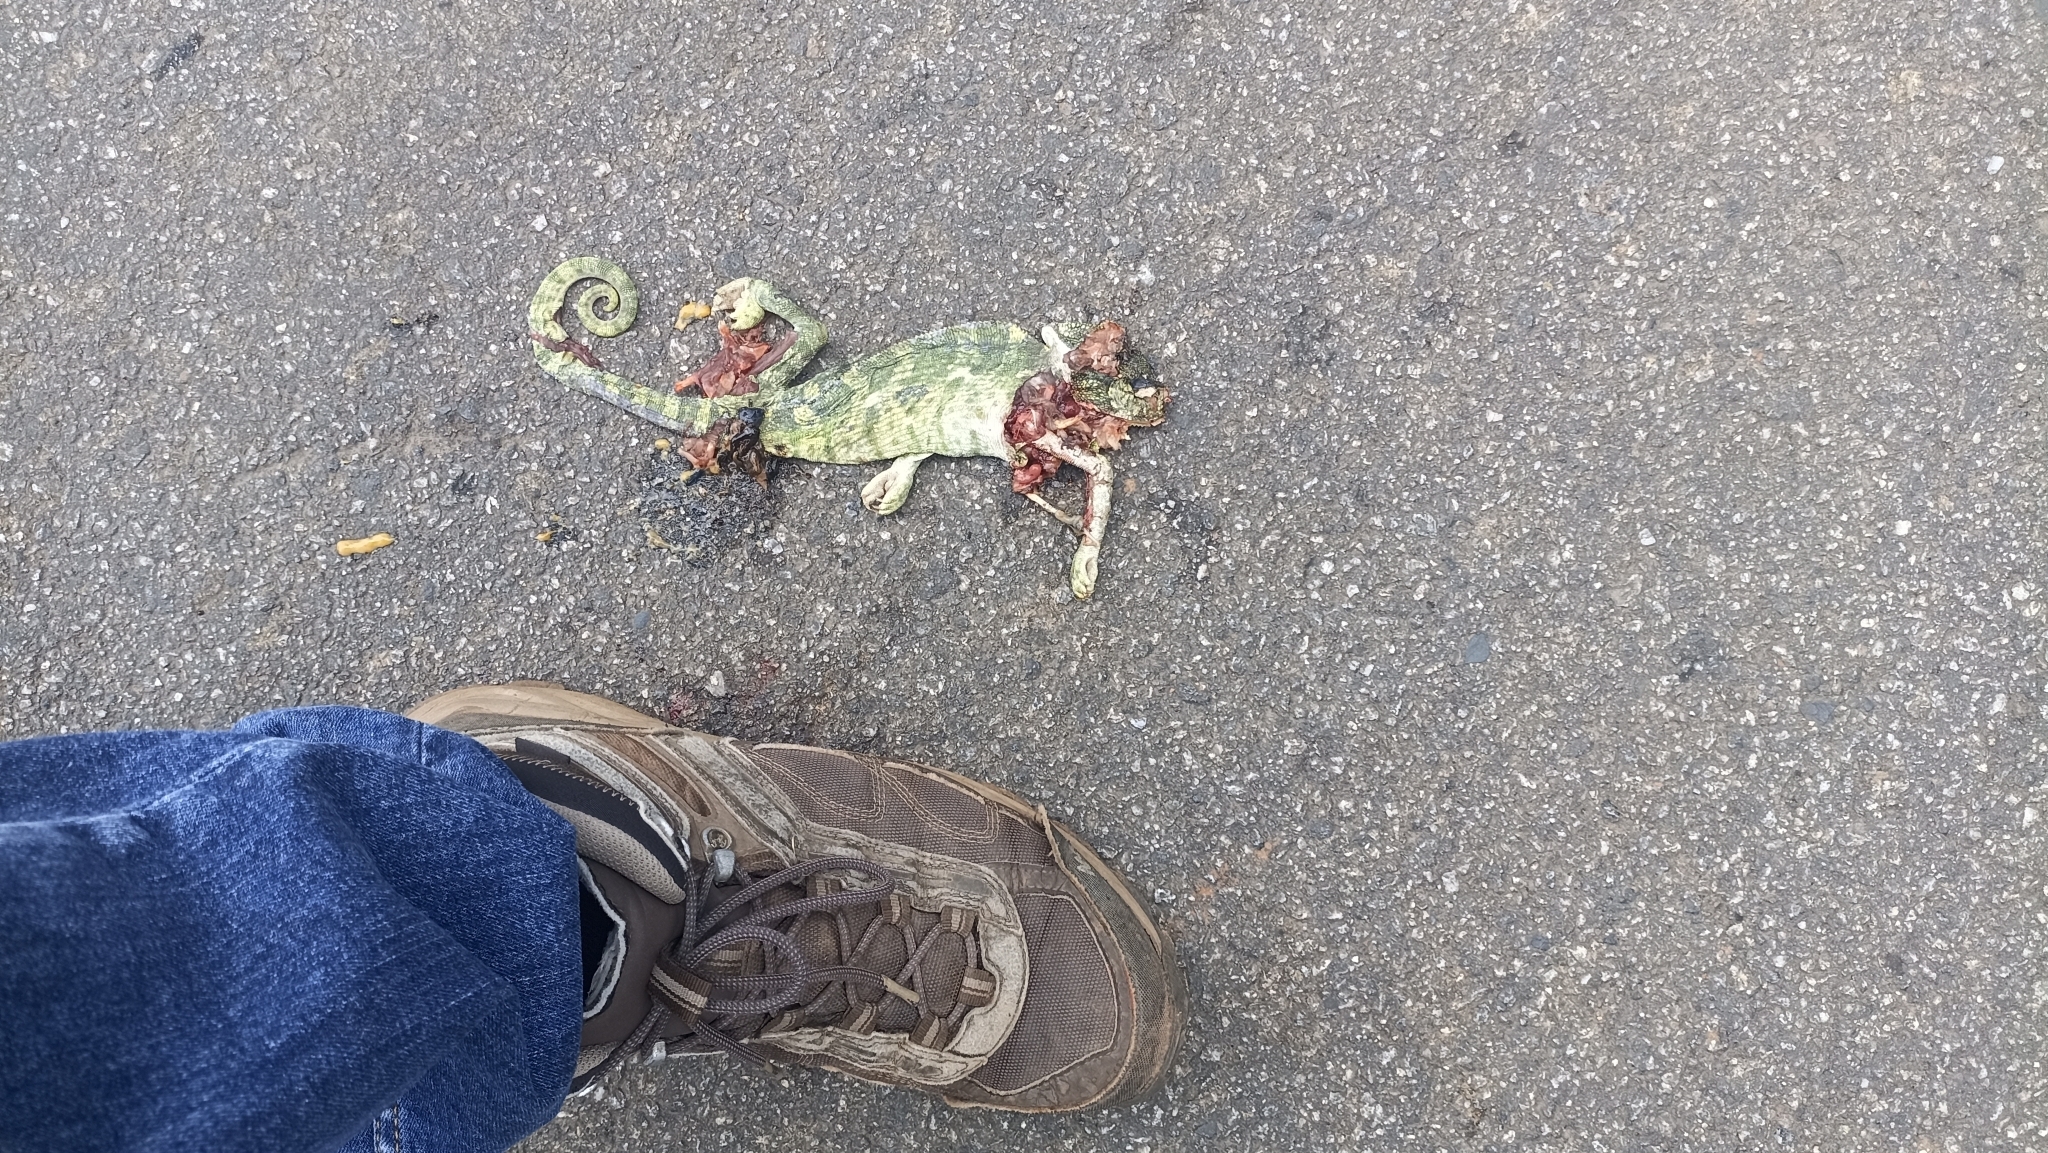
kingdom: Animalia
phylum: Chordata
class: Squamata
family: Chamaeleonidae
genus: Chamaeleo
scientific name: Chamaeleo zeylanicus
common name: Indian chameleon
